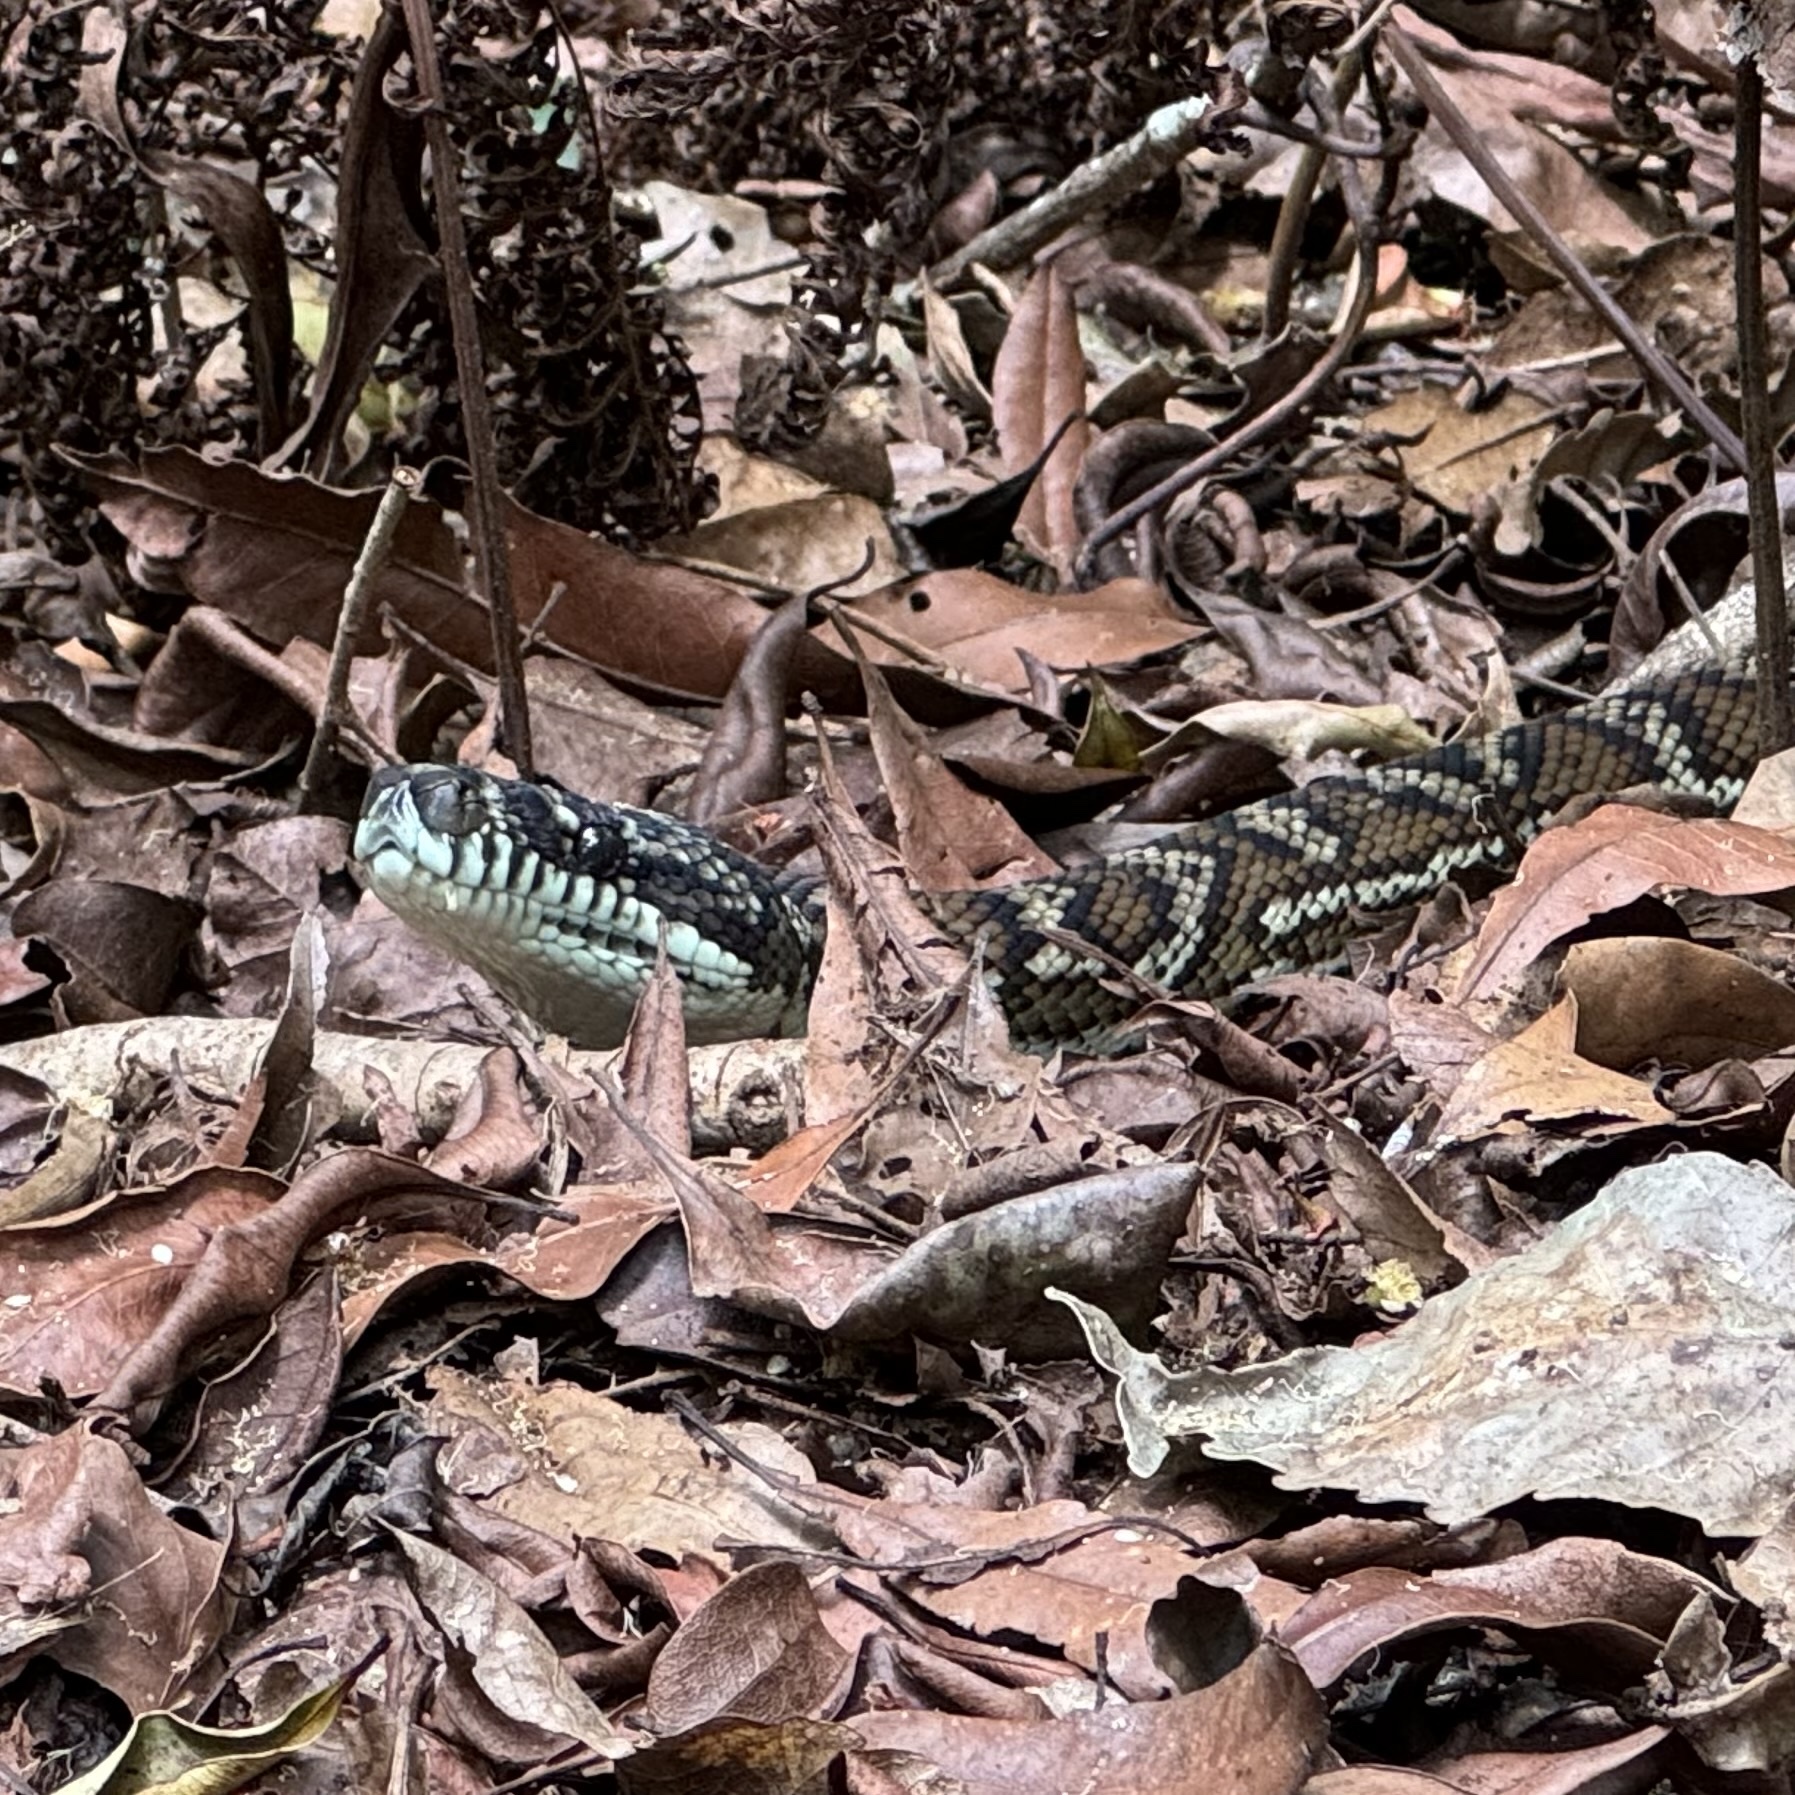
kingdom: Animalia
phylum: Chordata
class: Squamata
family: Pythonidae
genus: Morelia
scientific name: Morelia spilota
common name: Carpet python
